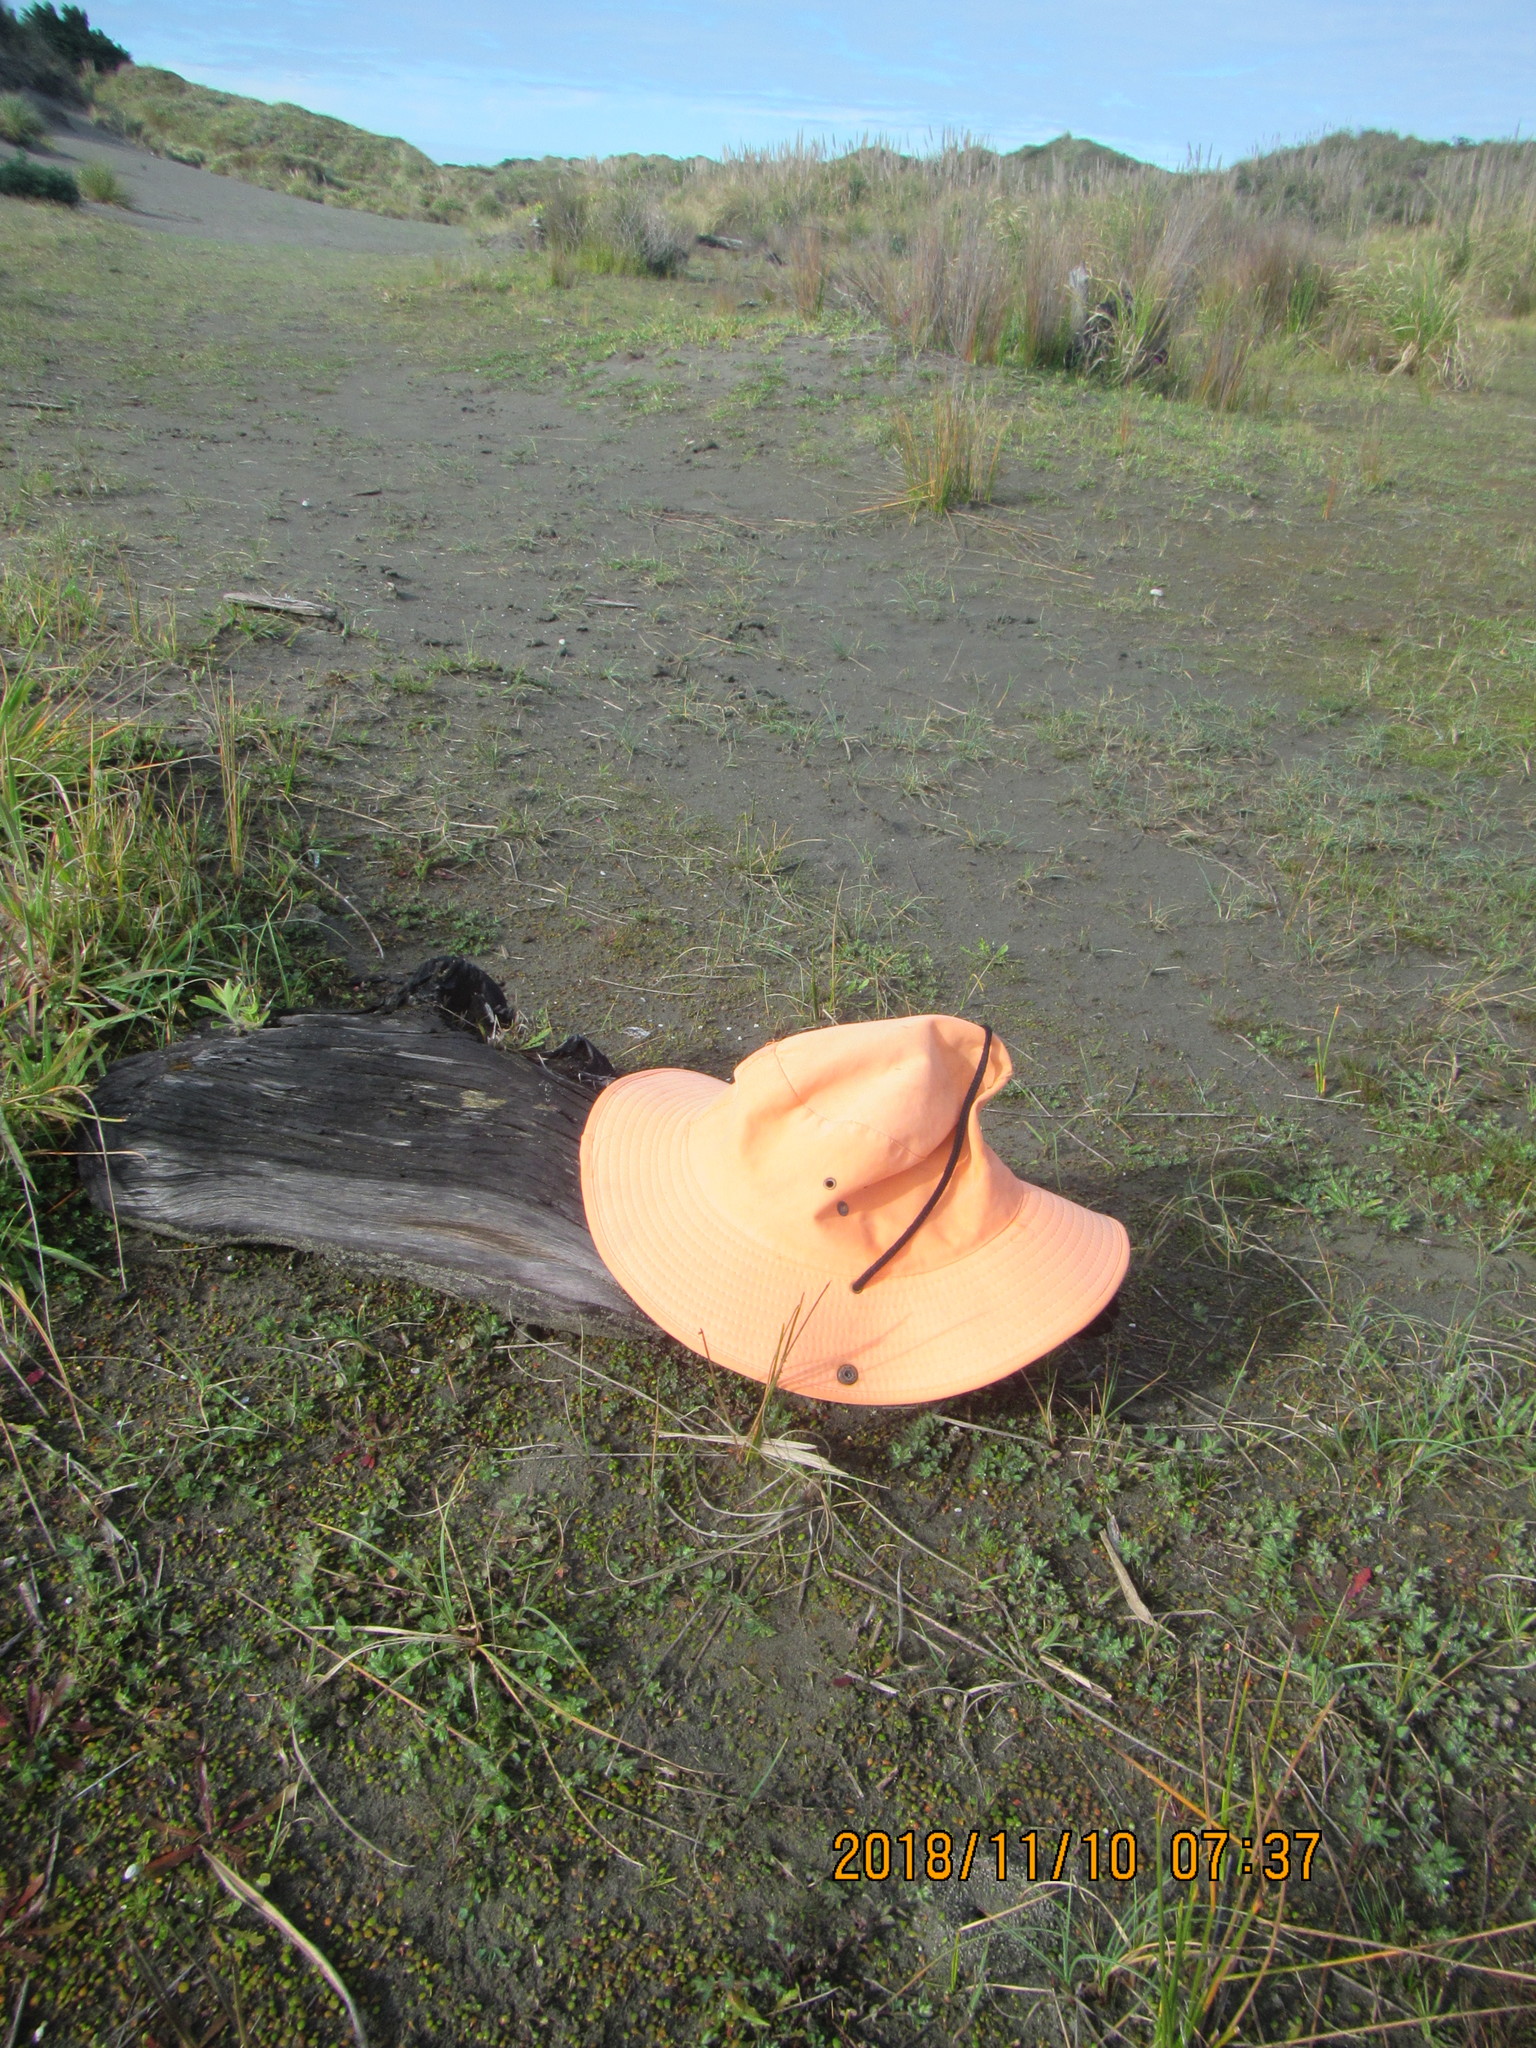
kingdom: Animalia
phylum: Arthropoda
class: Malacostraca
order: Isopoda
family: Porcellionidae
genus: Porcellio
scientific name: Porcellio scaber
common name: Common rough woodlouse
